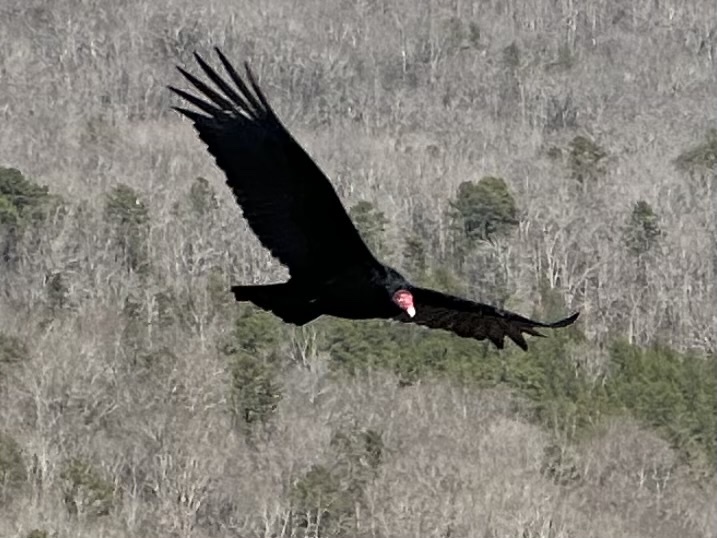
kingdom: Animalia
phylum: Chordata
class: Aves
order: Accipitriformes
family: Cathartidae
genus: Cathartes
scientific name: Cathartes aura
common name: Turkey vulture
